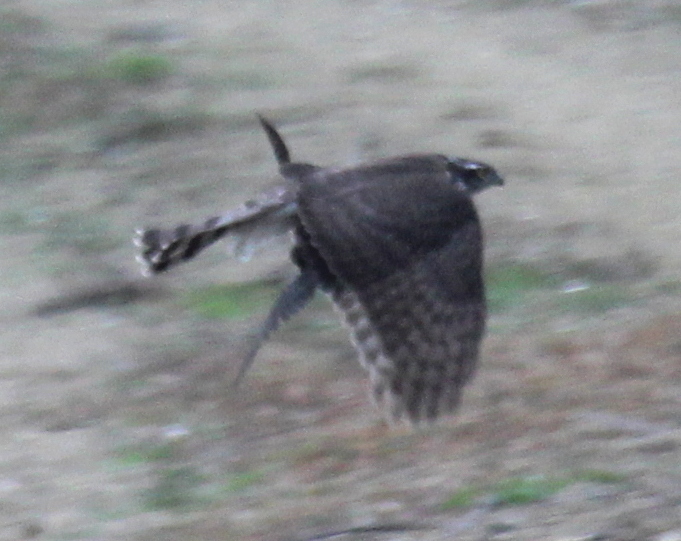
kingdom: Animalia
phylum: Chordata
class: Aves
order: Accipitriformes
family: Accipitridae
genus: Accipiter
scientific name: Accipiter nisus
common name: Eurasian sparrowhawk
